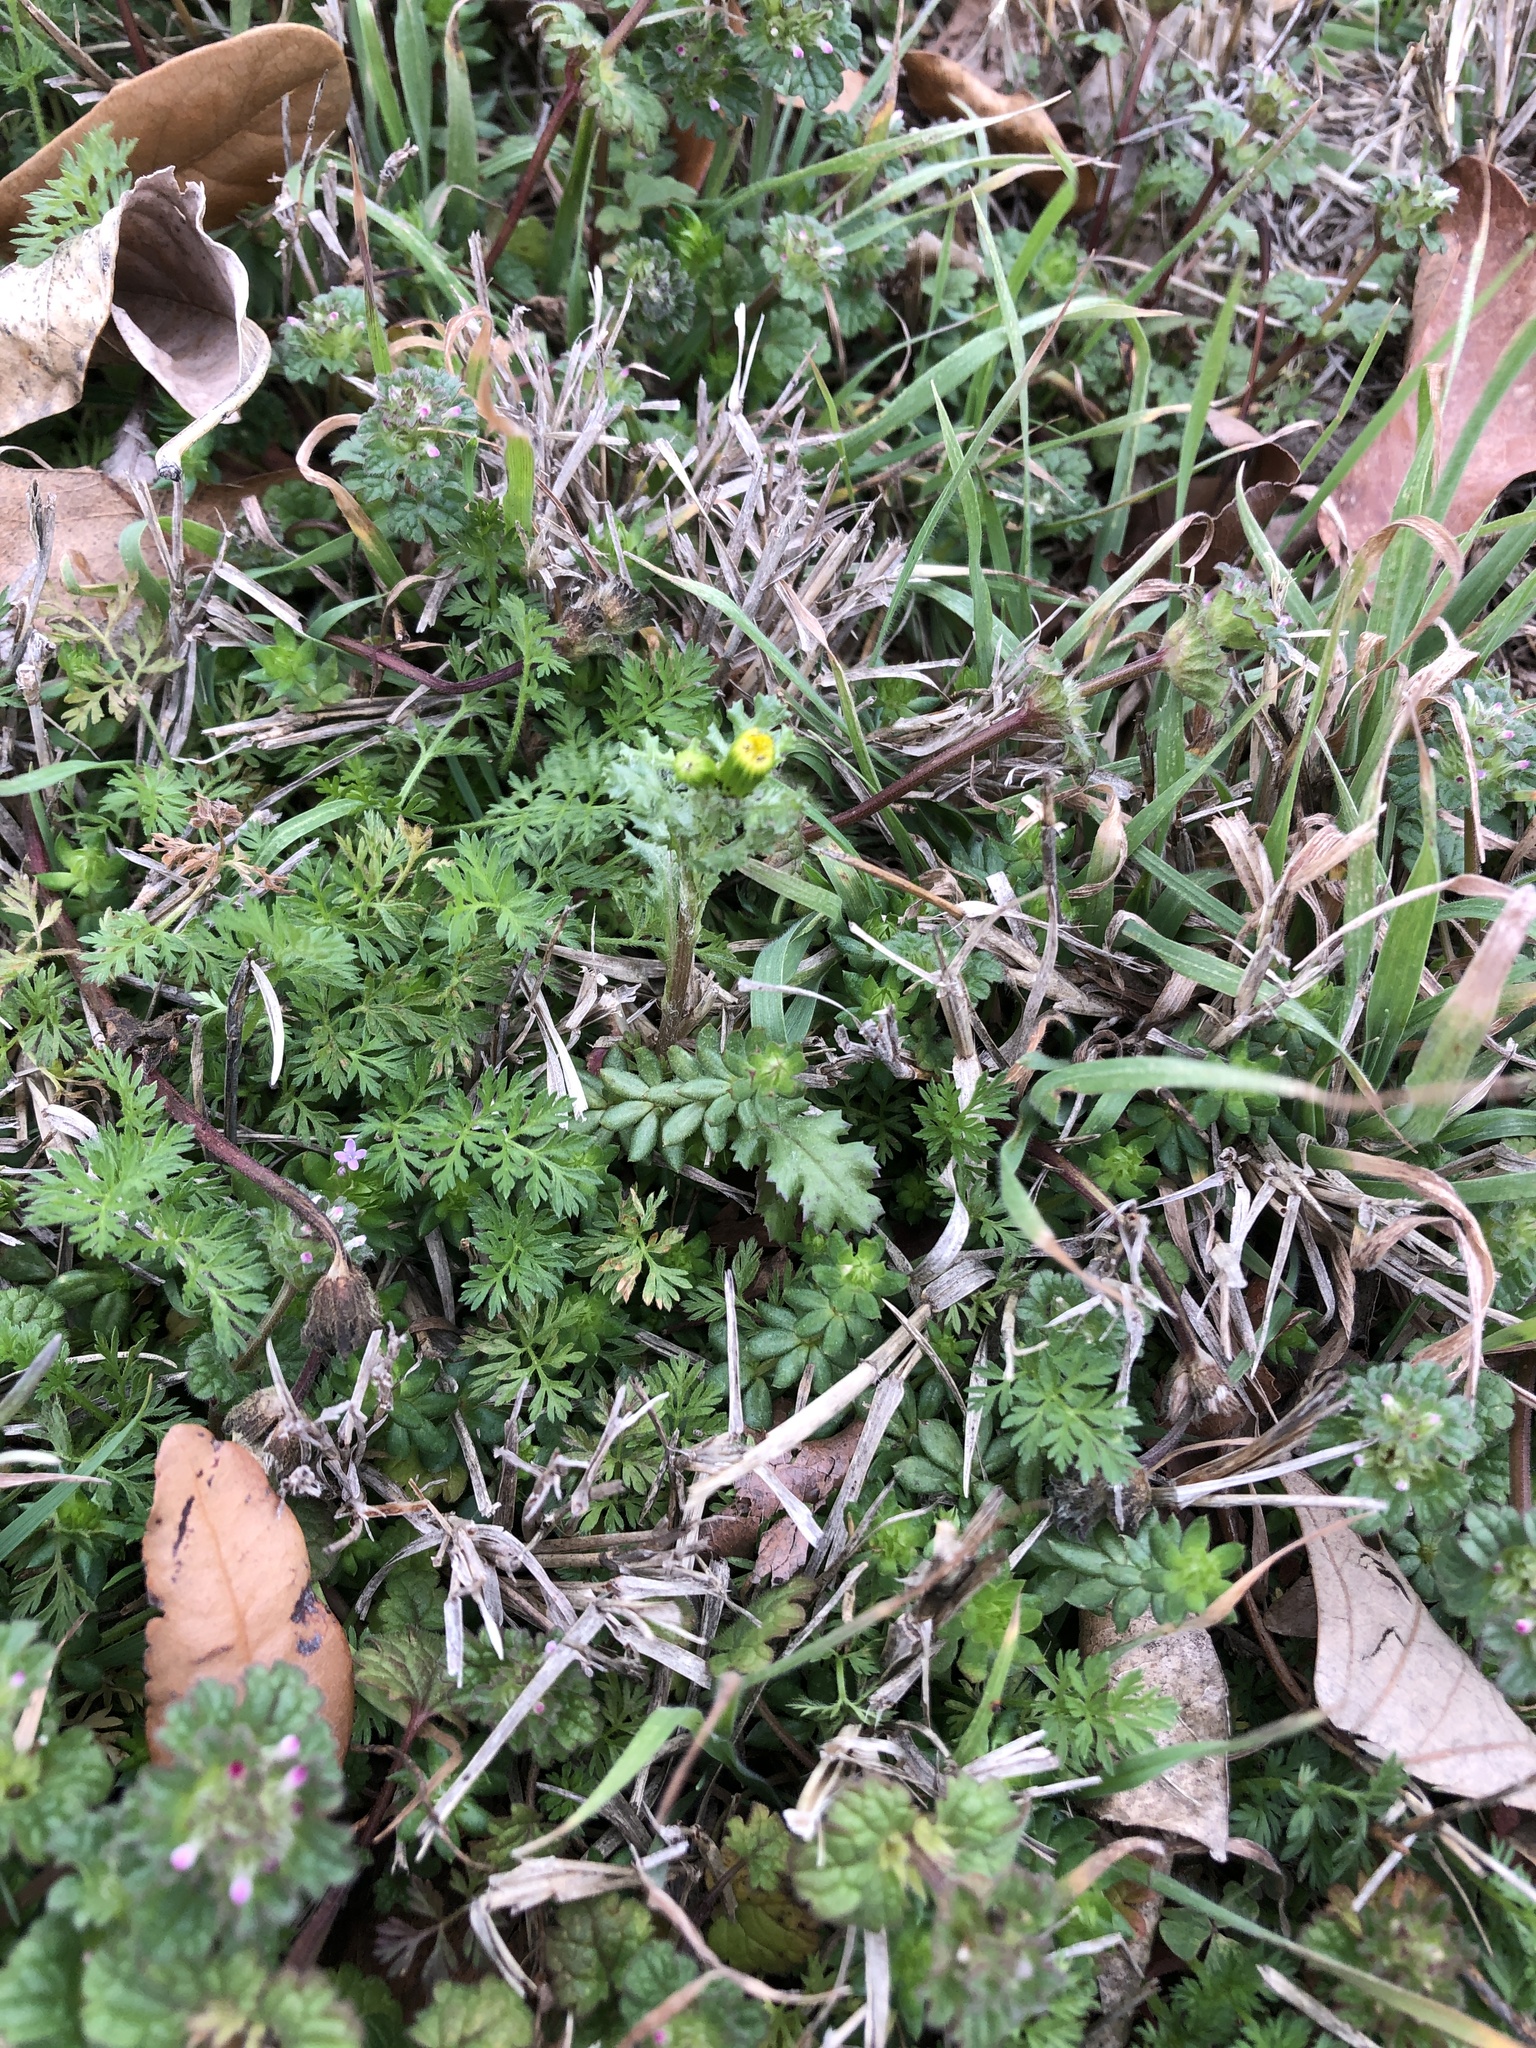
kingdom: Plantae
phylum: Tracheophyta
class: Magnoliopsida
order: Asterales
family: Asteraceae
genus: Senecio
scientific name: Senecio vulgaris
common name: Old-man-in-the-spring
